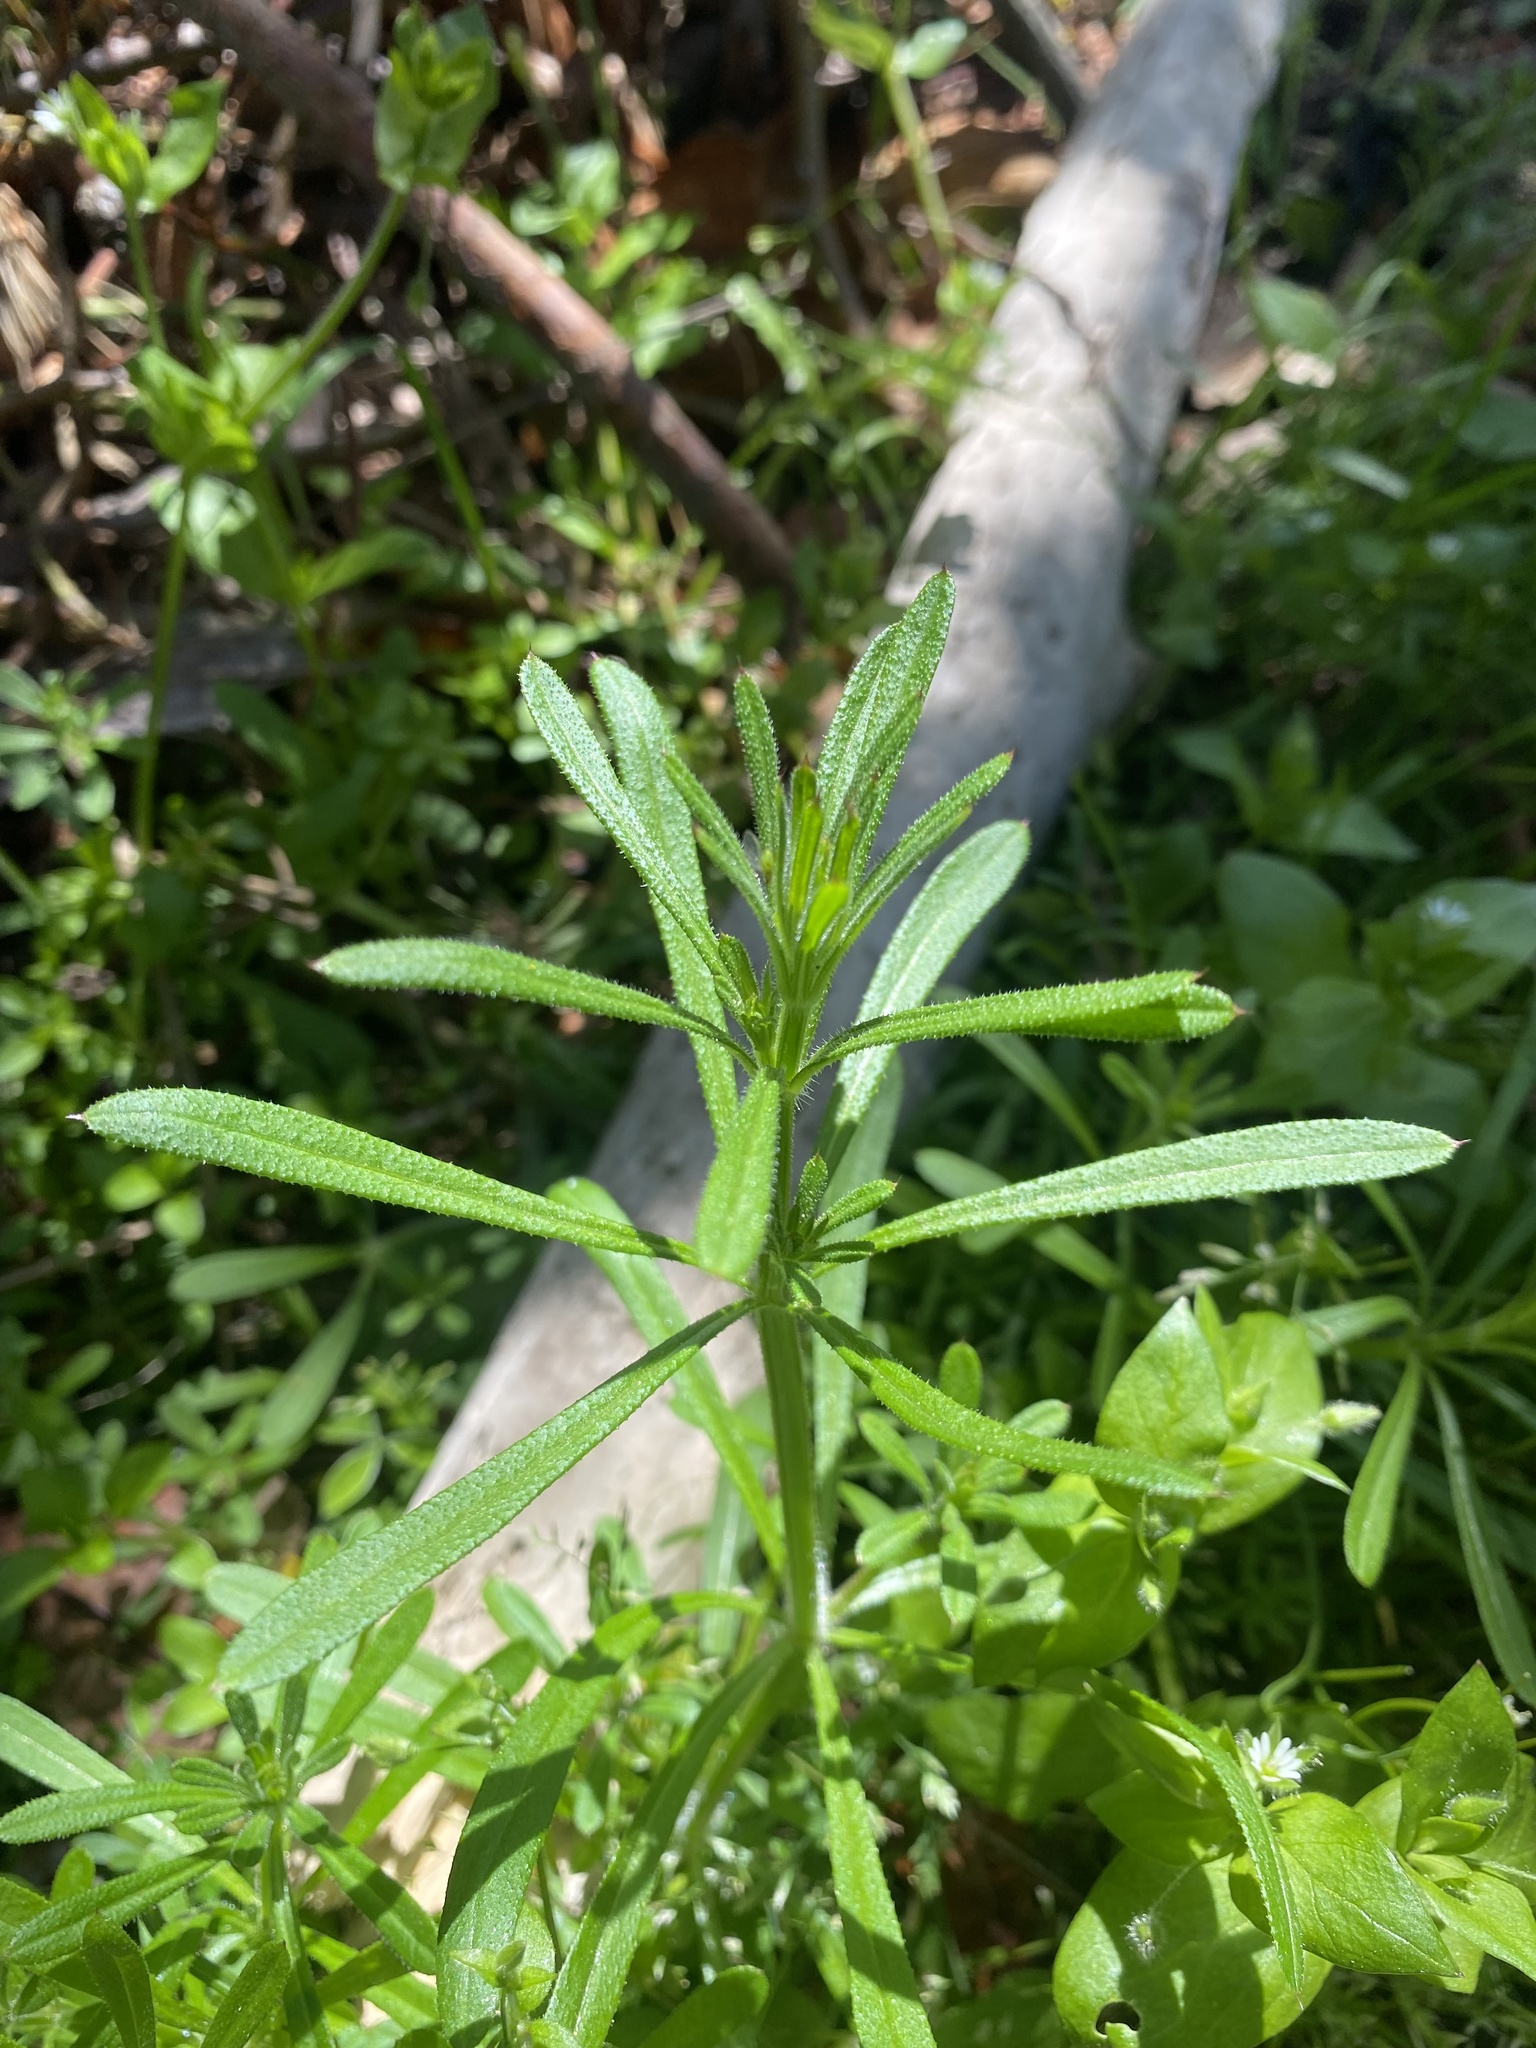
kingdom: Plantae
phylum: Tracheophyta
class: Magnoliopsida
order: Gentianales
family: Rubiaceae
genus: Galium
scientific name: Galium aparine
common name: Cleavers
